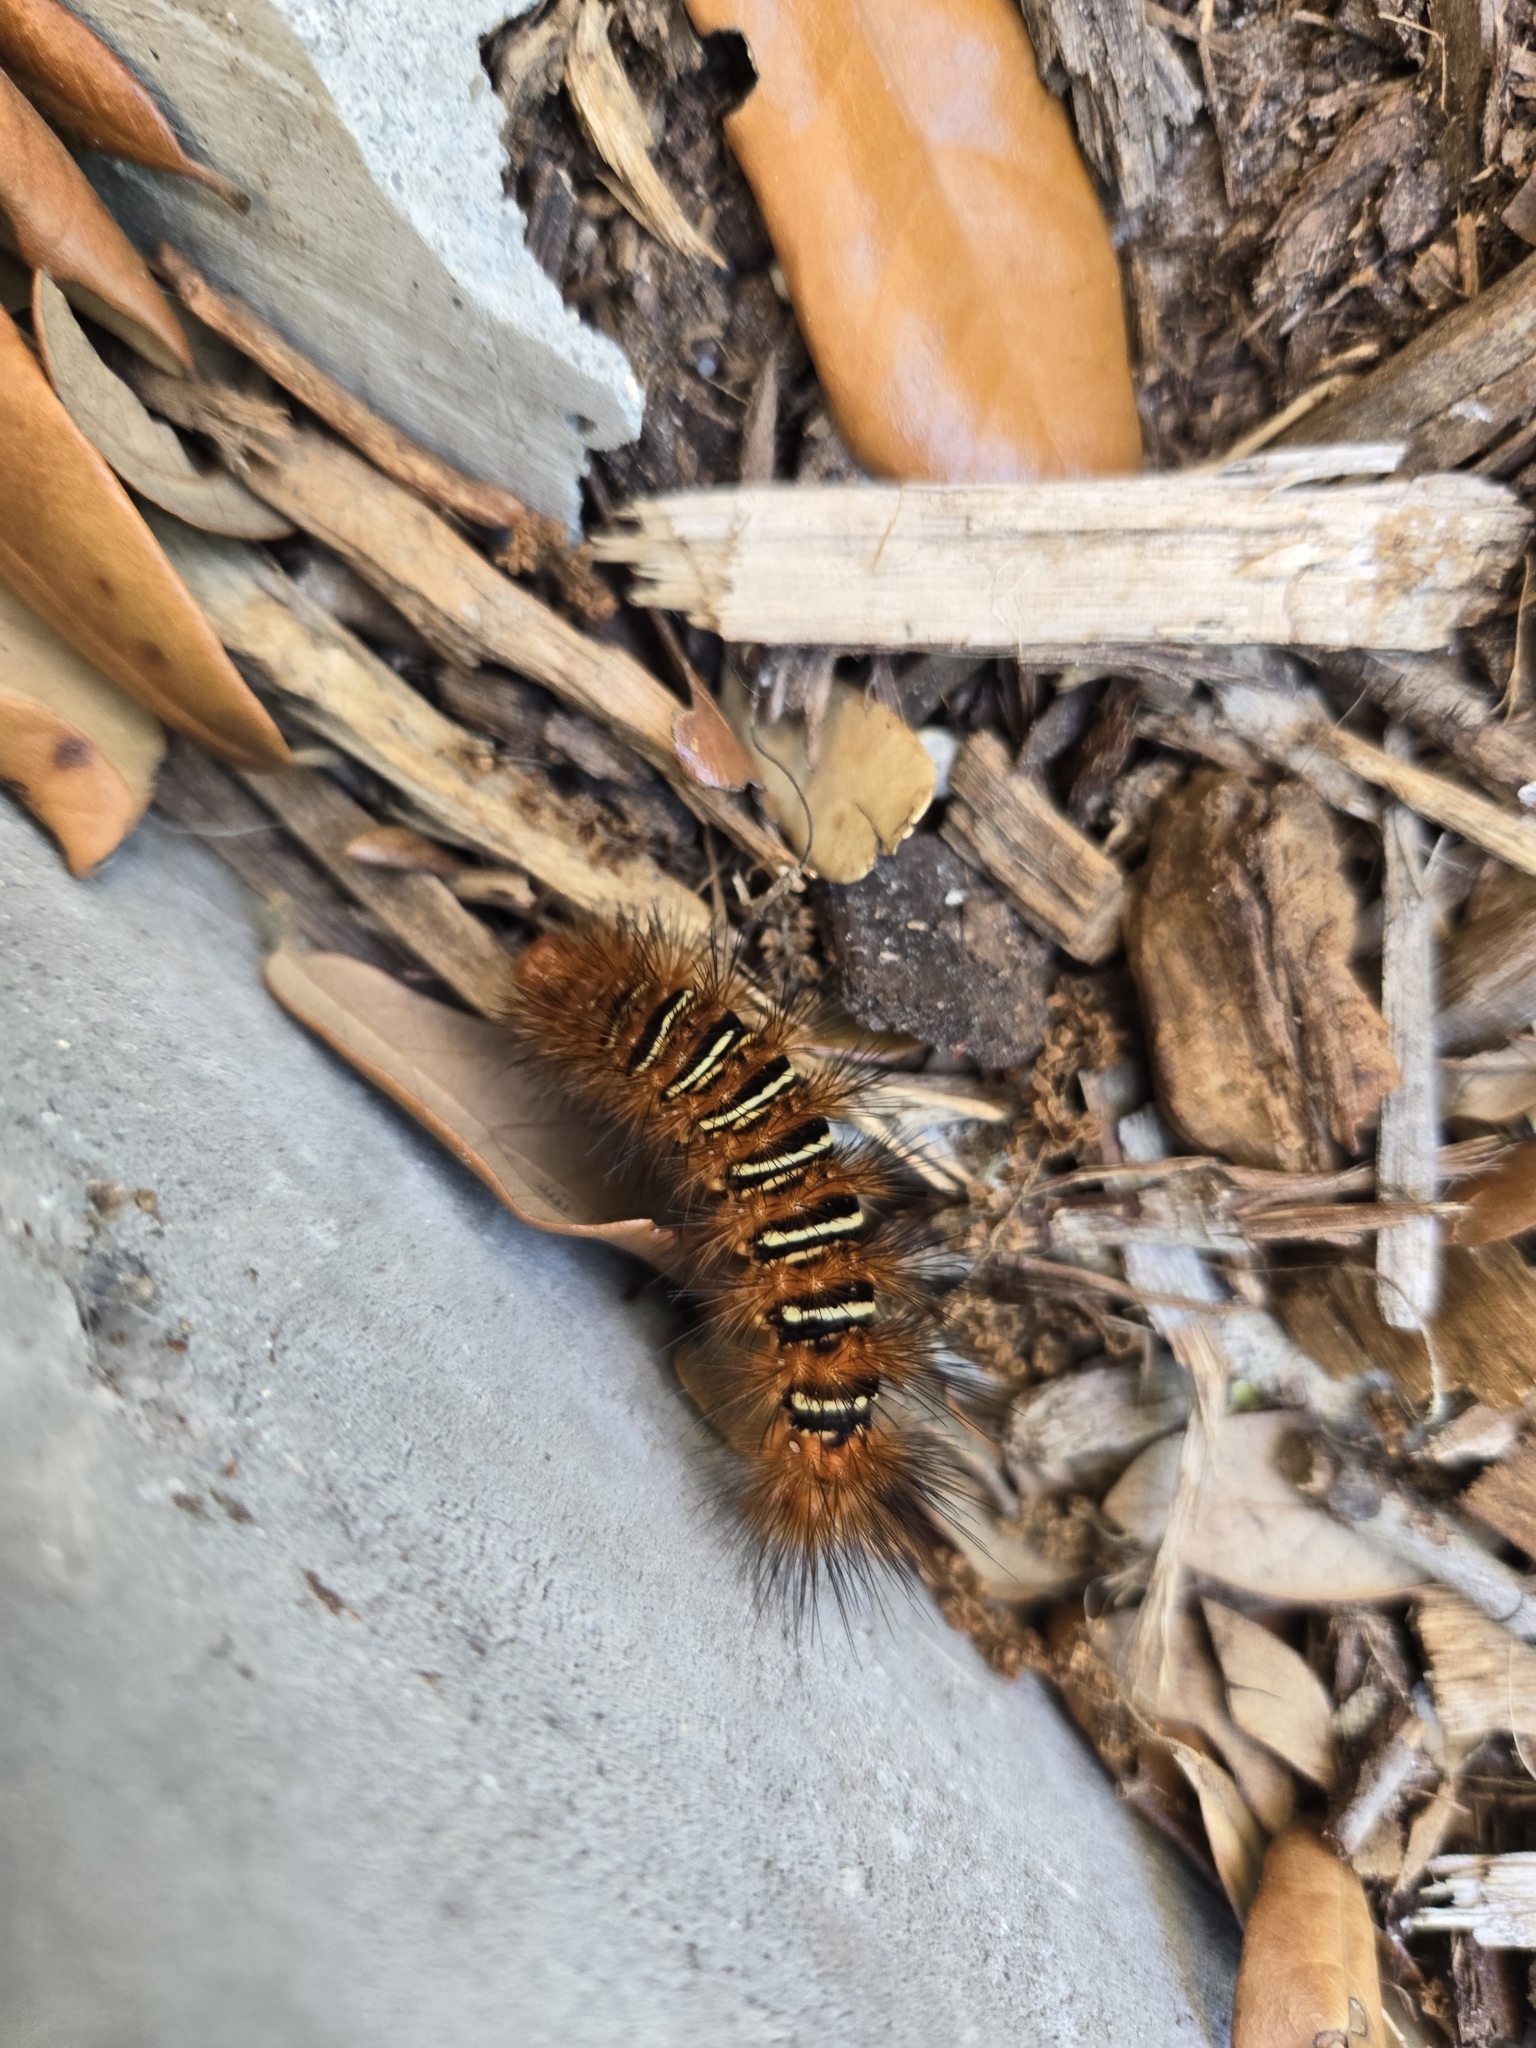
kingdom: Animalia
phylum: Arthropoda
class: Insecta
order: Lepidoptera
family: Erebidae
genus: Seirarctia
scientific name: Seirarctia echo
